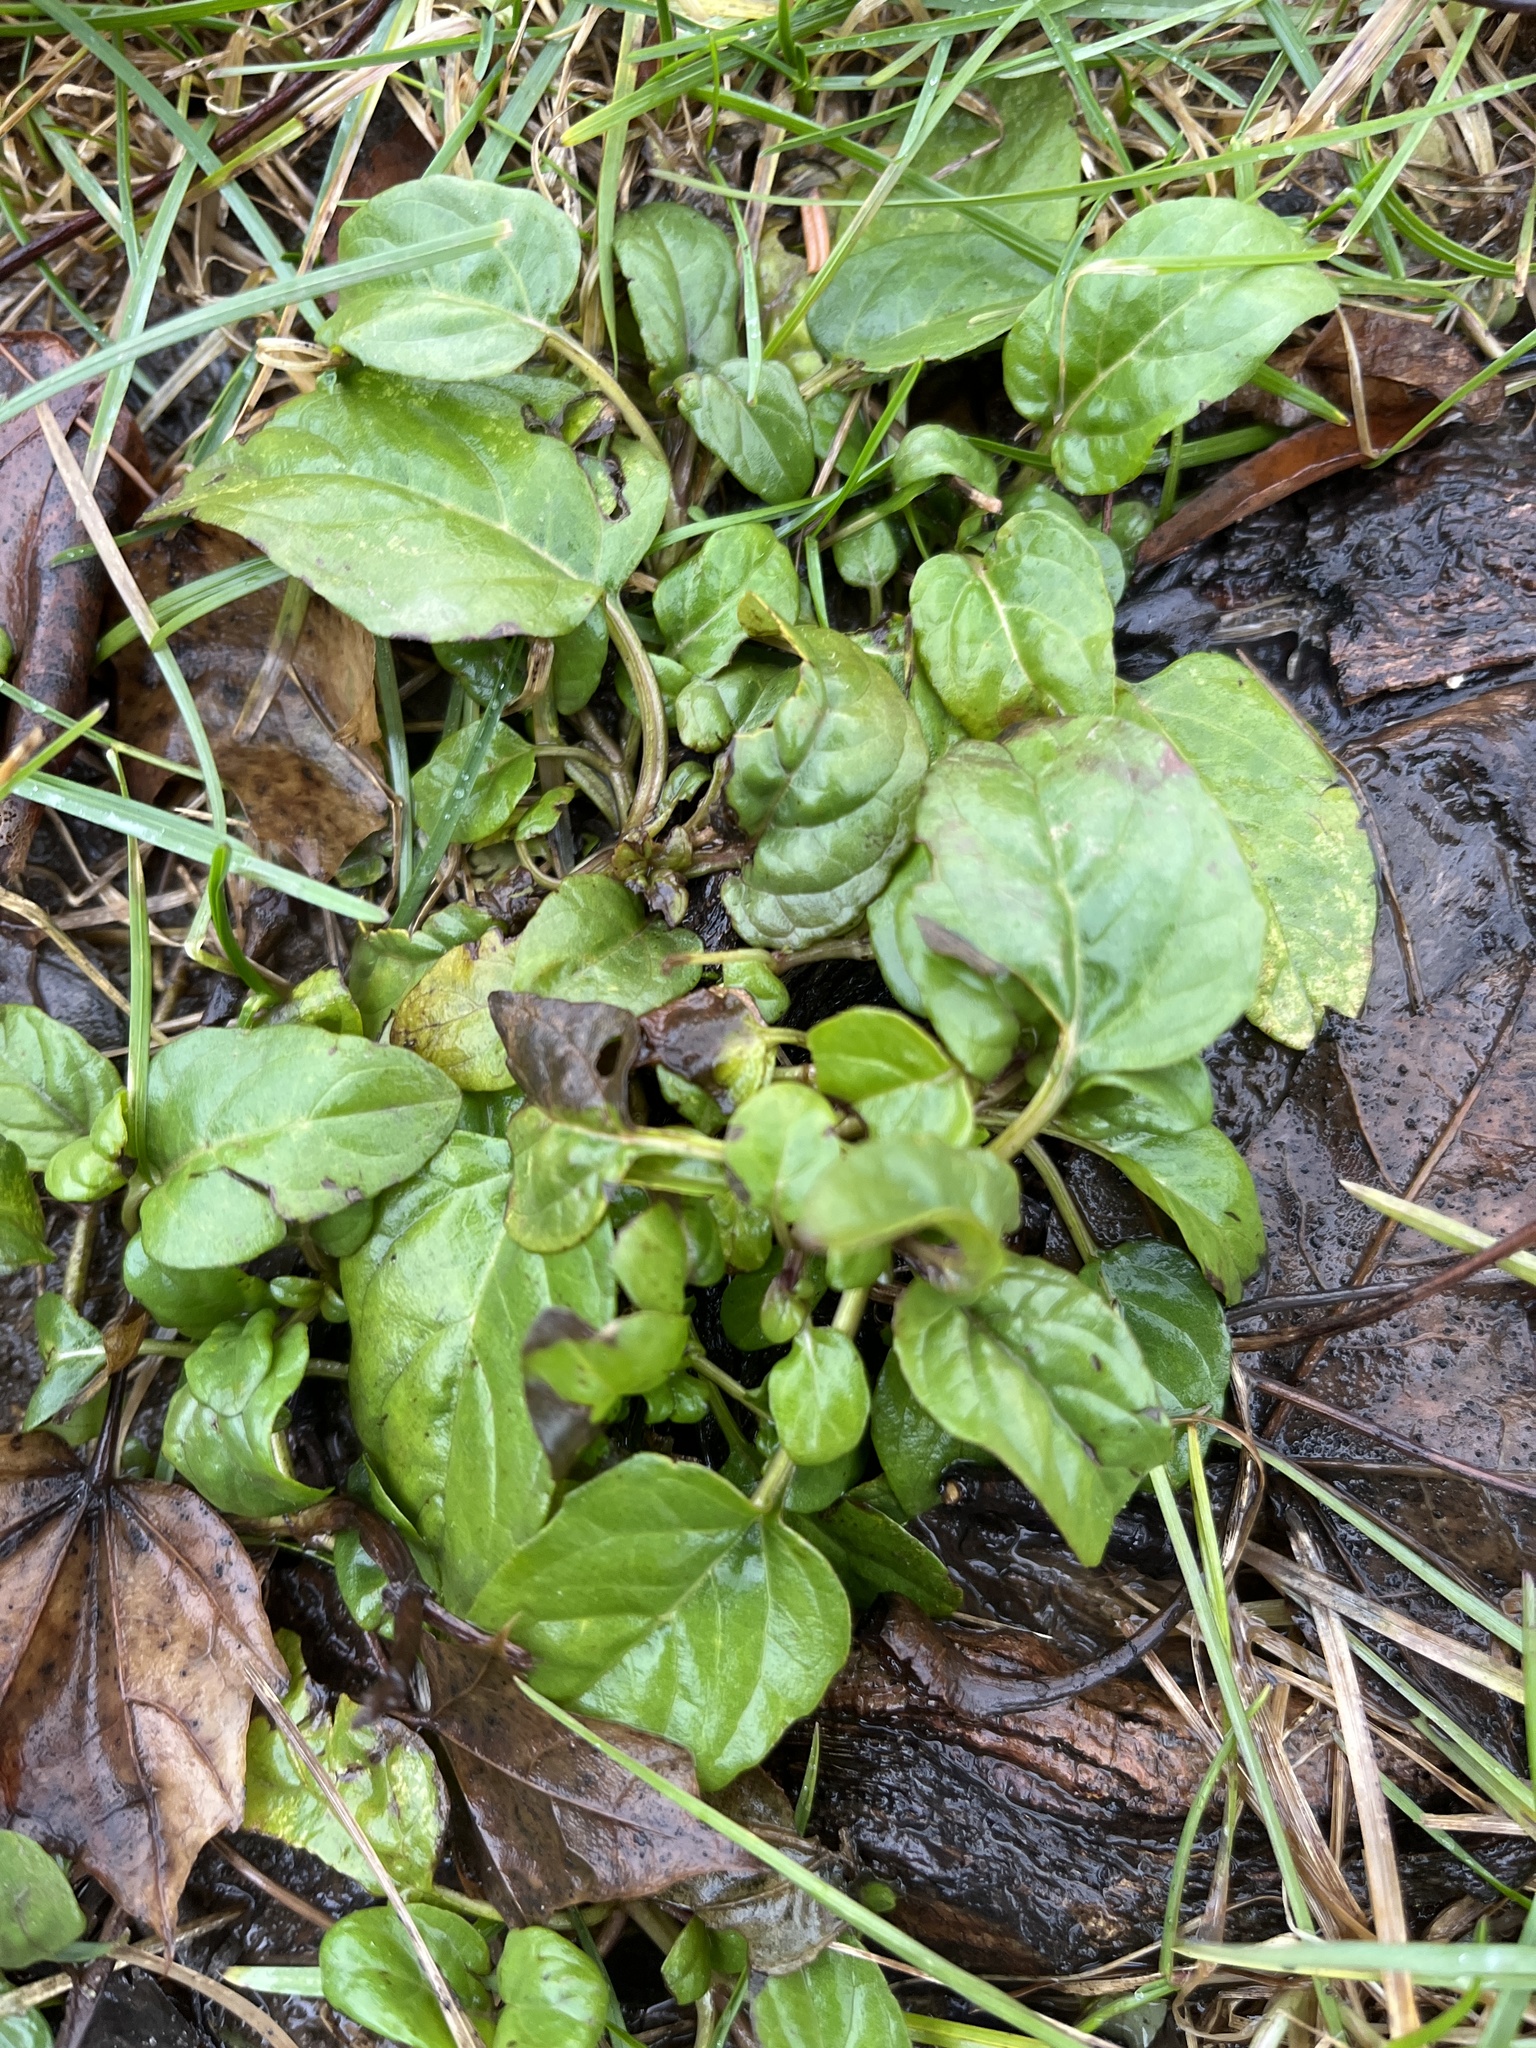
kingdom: Plantae
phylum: Tracheophyta
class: Magnoliopsida
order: Lamiales
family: Lamiaceae
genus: Prunella
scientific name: Prunella vulgaris
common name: Heal-all
